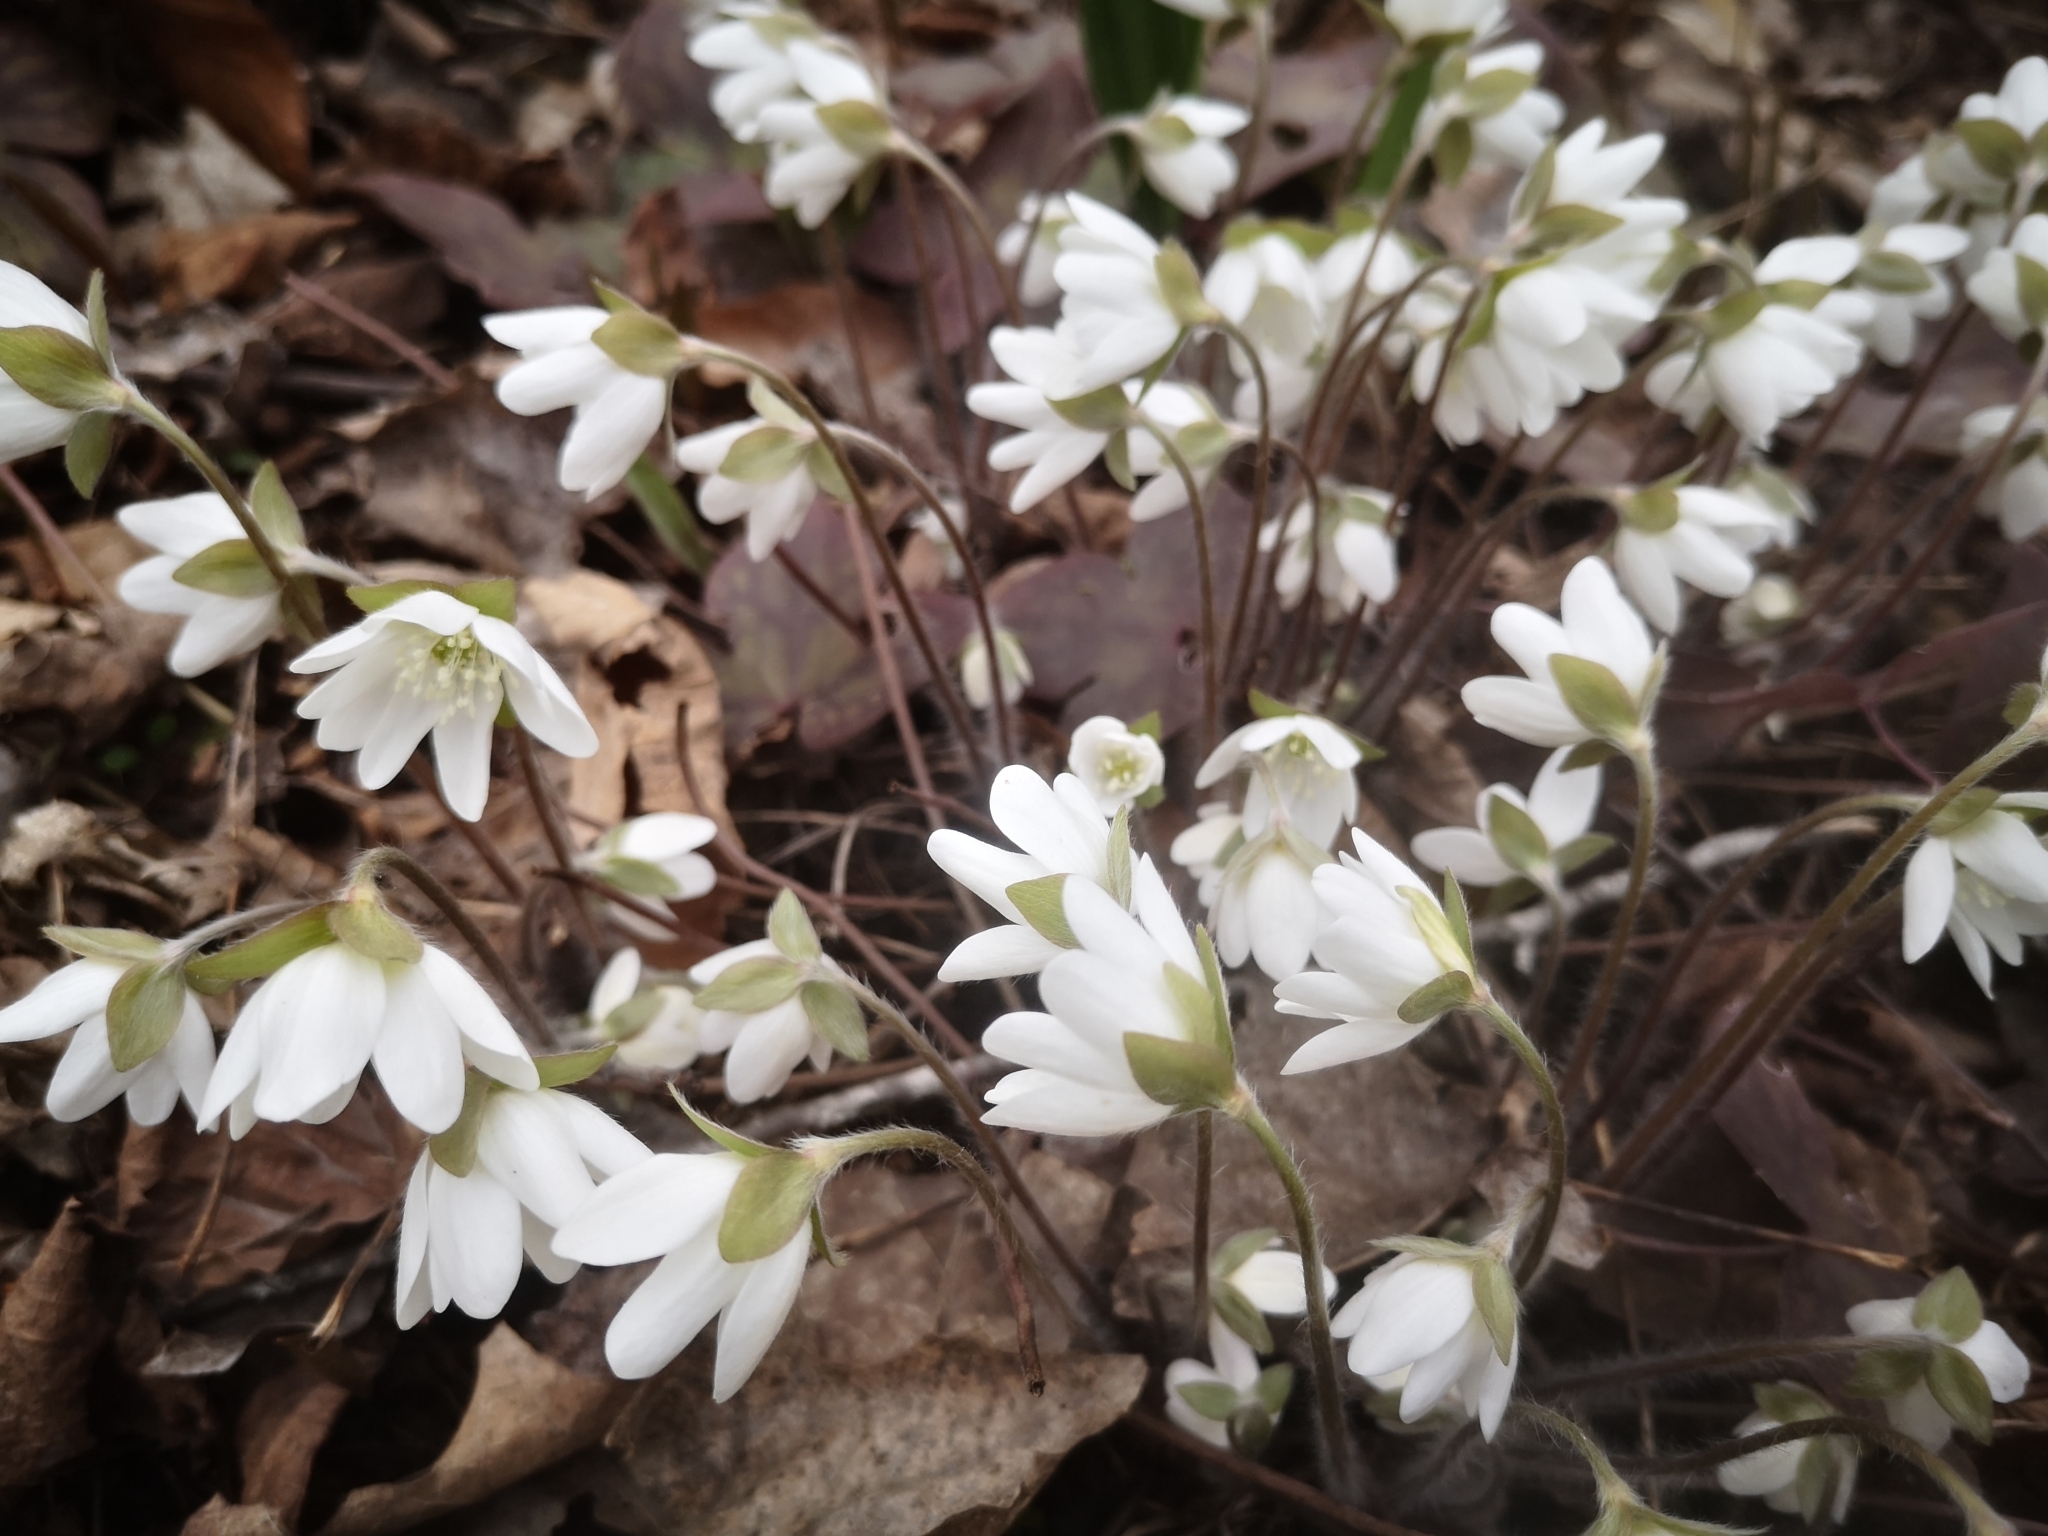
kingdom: Plantae
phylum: Tracheophyta
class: Magnoliopsida
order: Ranunculales
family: Ranunculaceae
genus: Hepatica
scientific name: Hepatica acutiloba
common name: Sharp-lobed hepatica
